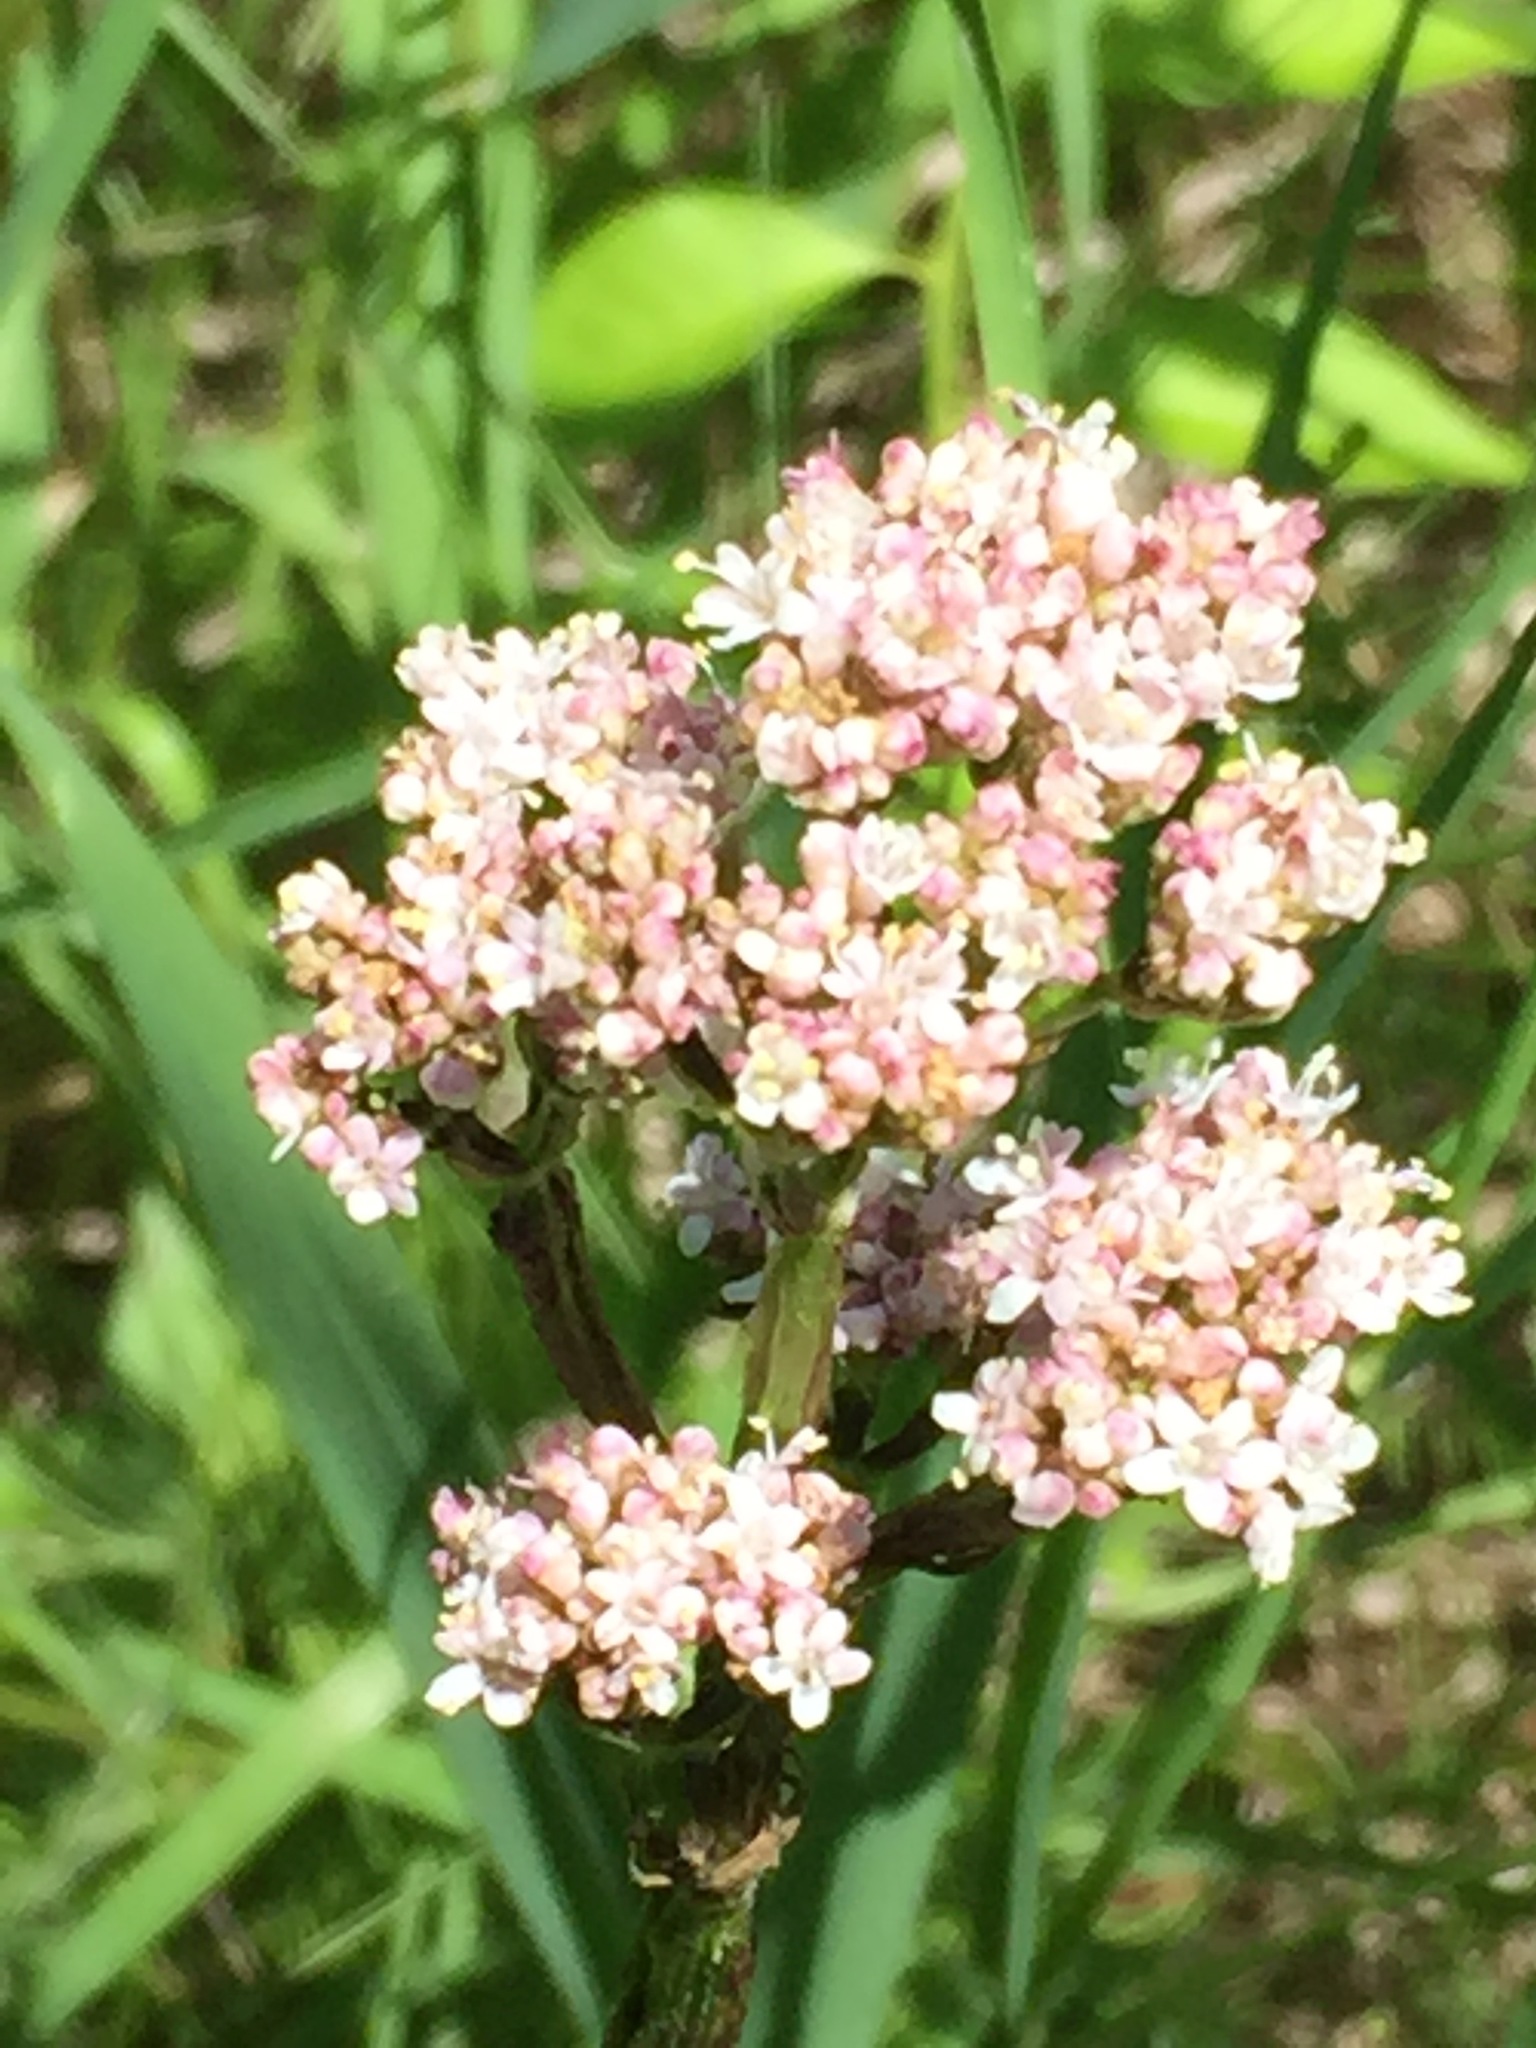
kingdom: Plantae
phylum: Tracheophyta
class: Magnoliopsida
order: Dipsacales
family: Caprifoliaceae
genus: Valeriana
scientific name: Valeriana officinalis
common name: Common valerian
